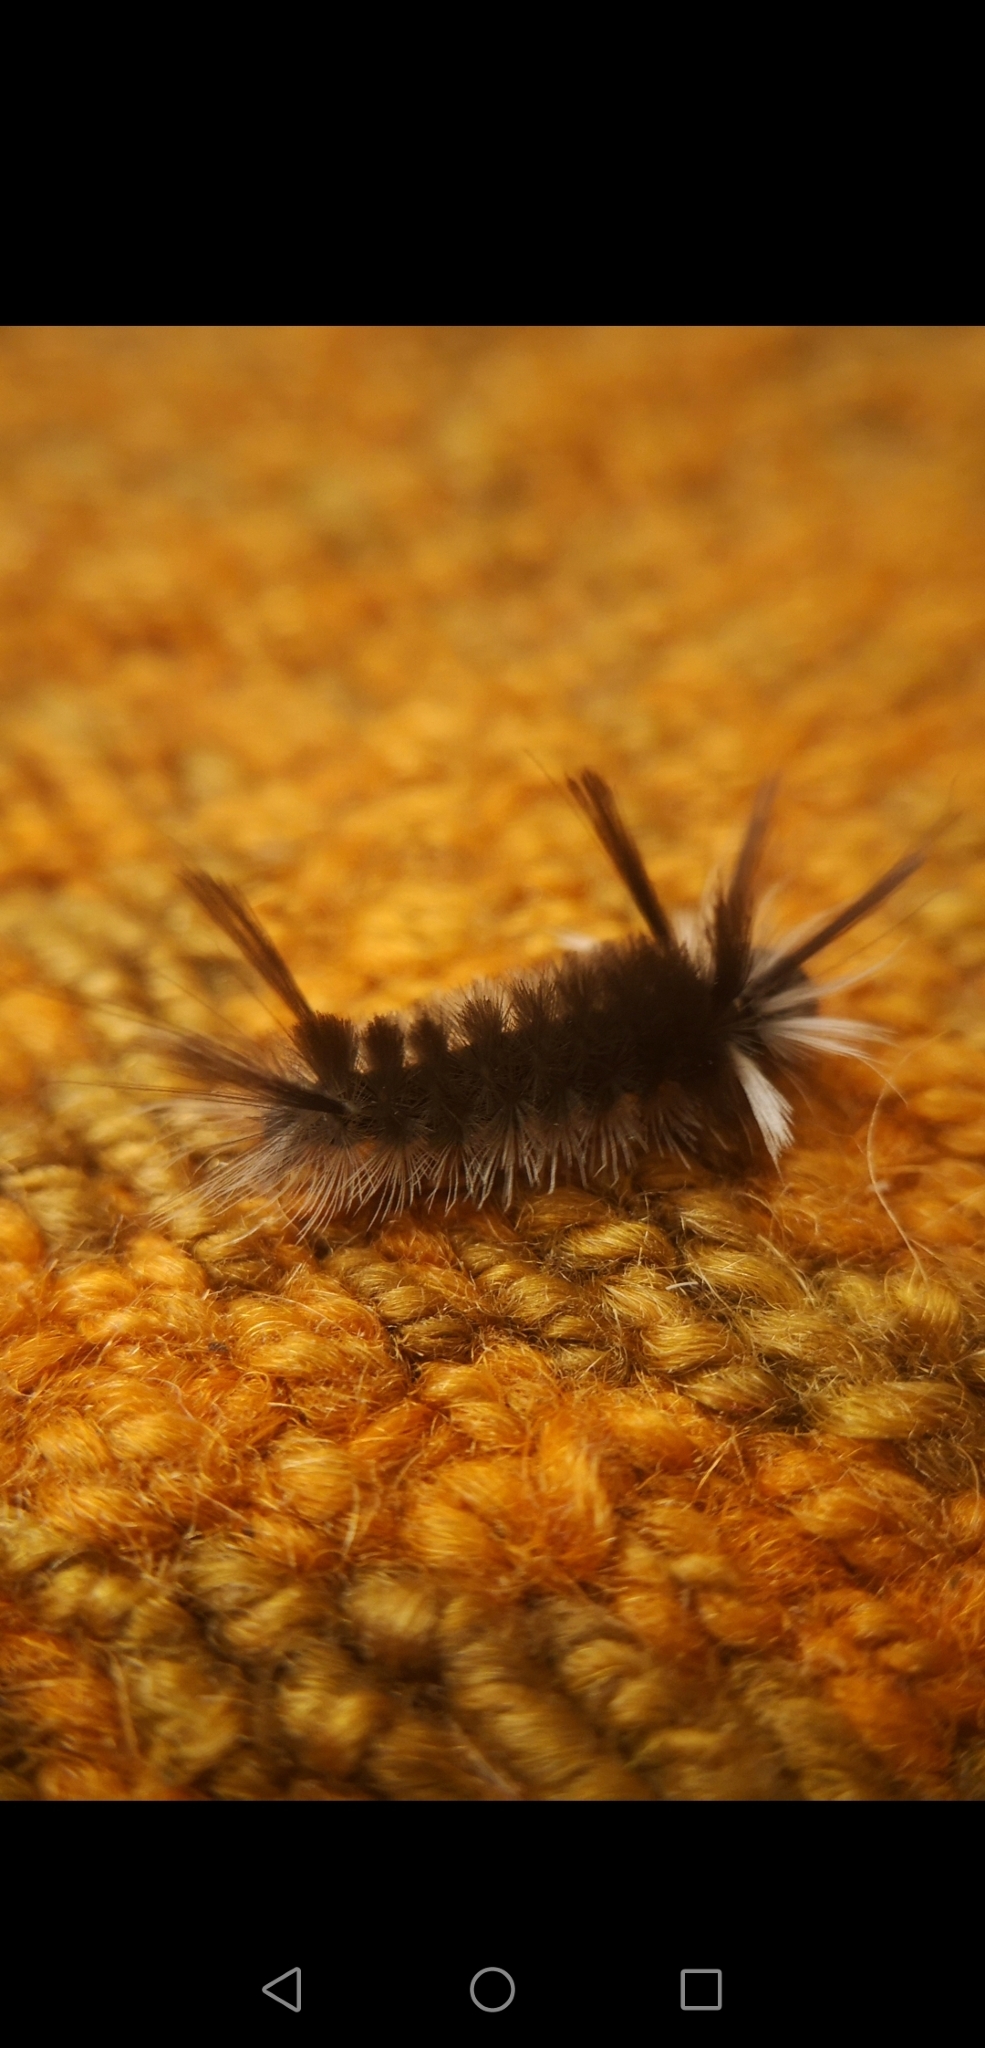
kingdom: Animalia
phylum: Arthropoda
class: Insecta
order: Lepidoptera
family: Erebidae
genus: Halysidota
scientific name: Halysidota tessellaris
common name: Banded tussock moth
